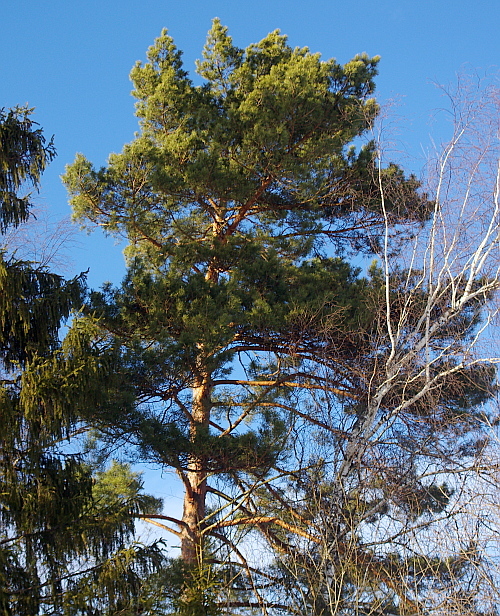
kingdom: Plantae
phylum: Tracheophyta
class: Pinopsida
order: Pinales
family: Pinaceae
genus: Pinus
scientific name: Pinus sylvestris
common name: Scots pine
